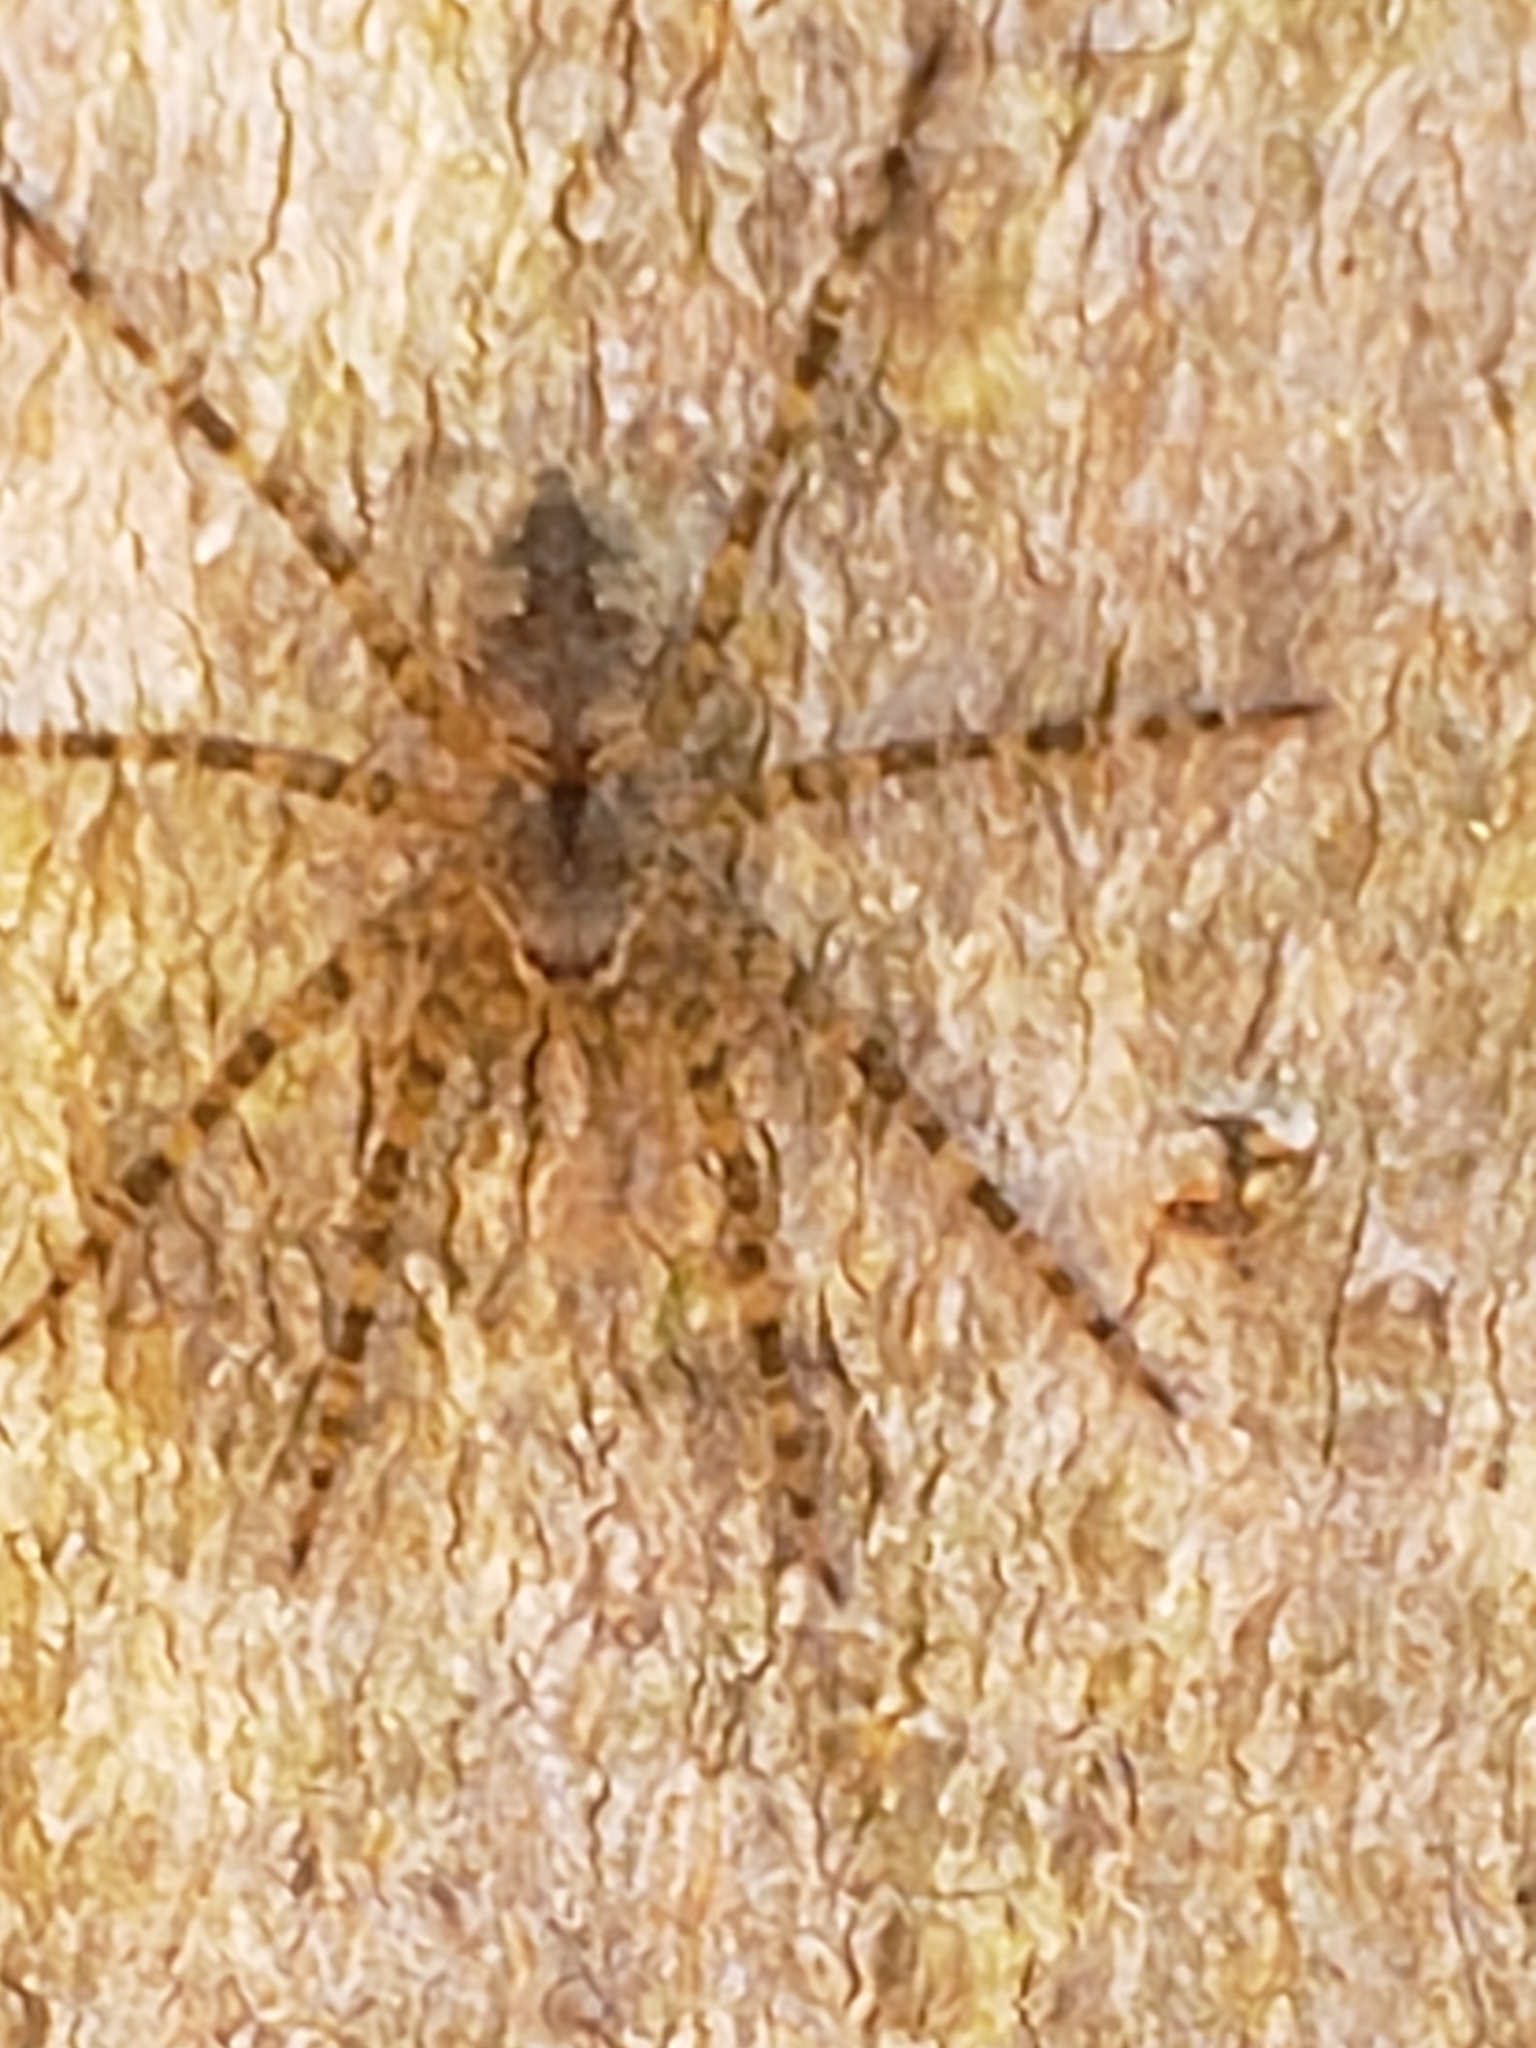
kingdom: Animalia
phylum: Arthropoda
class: Arachnida
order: Araneae
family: Pisauridae
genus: Dolomedes
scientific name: Dolomedes albineus
